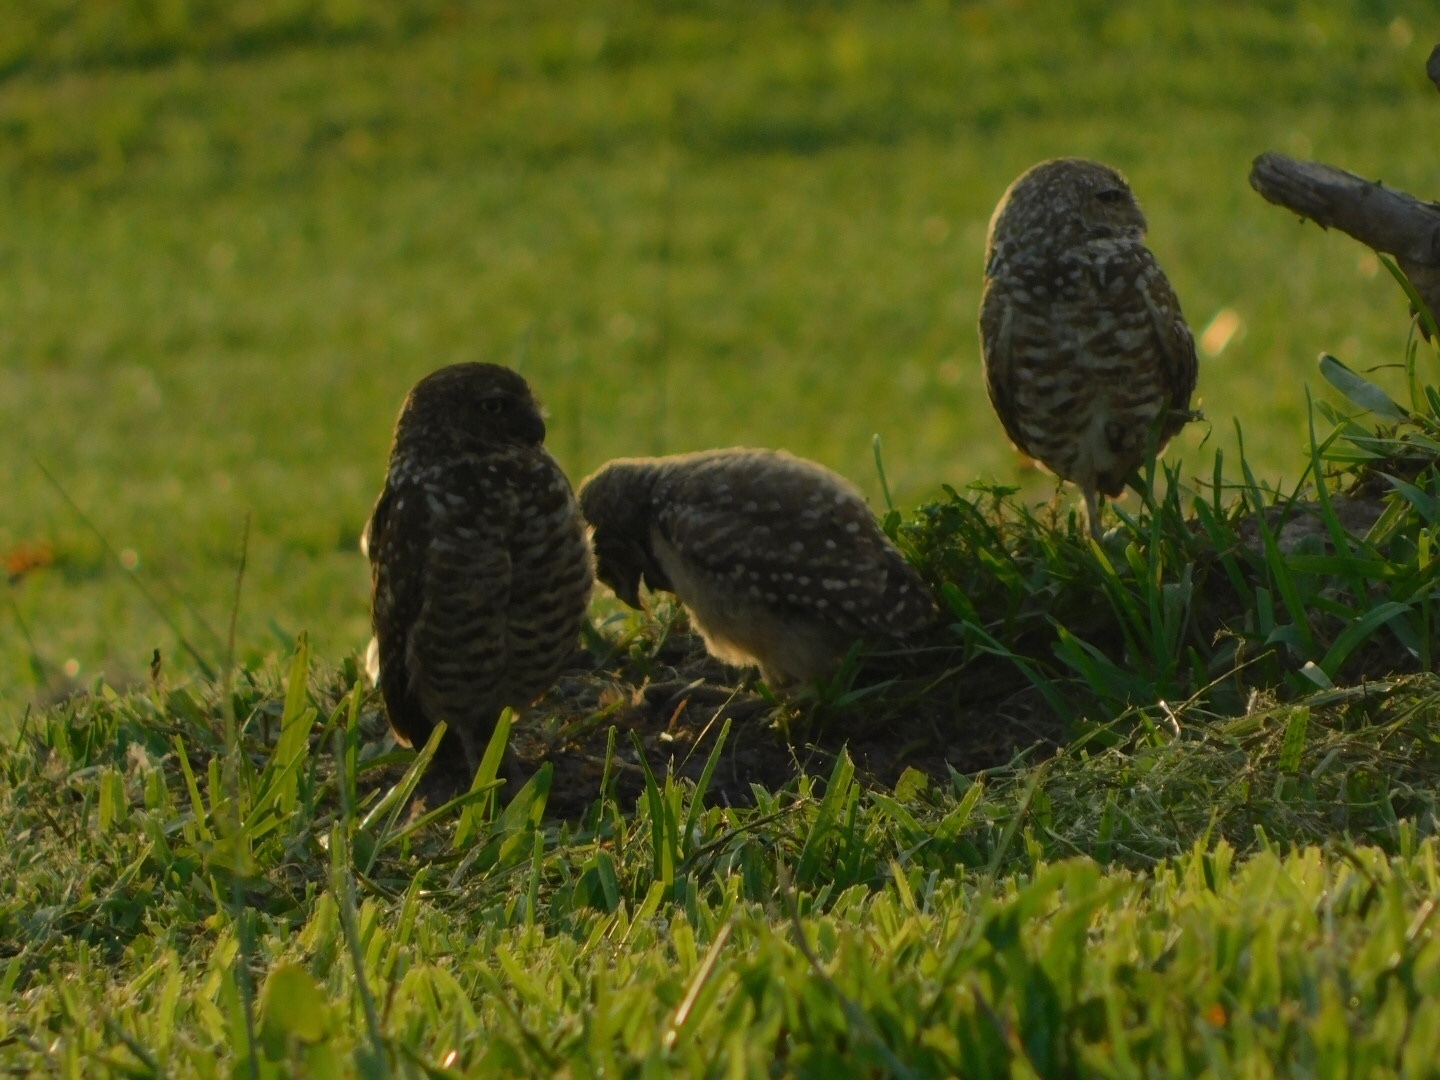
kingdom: Animalia
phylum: Chordata
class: Aves
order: Strigiformes
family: Strigidae
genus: Athene
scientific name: Athene cunicularia
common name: Burrowing owl
